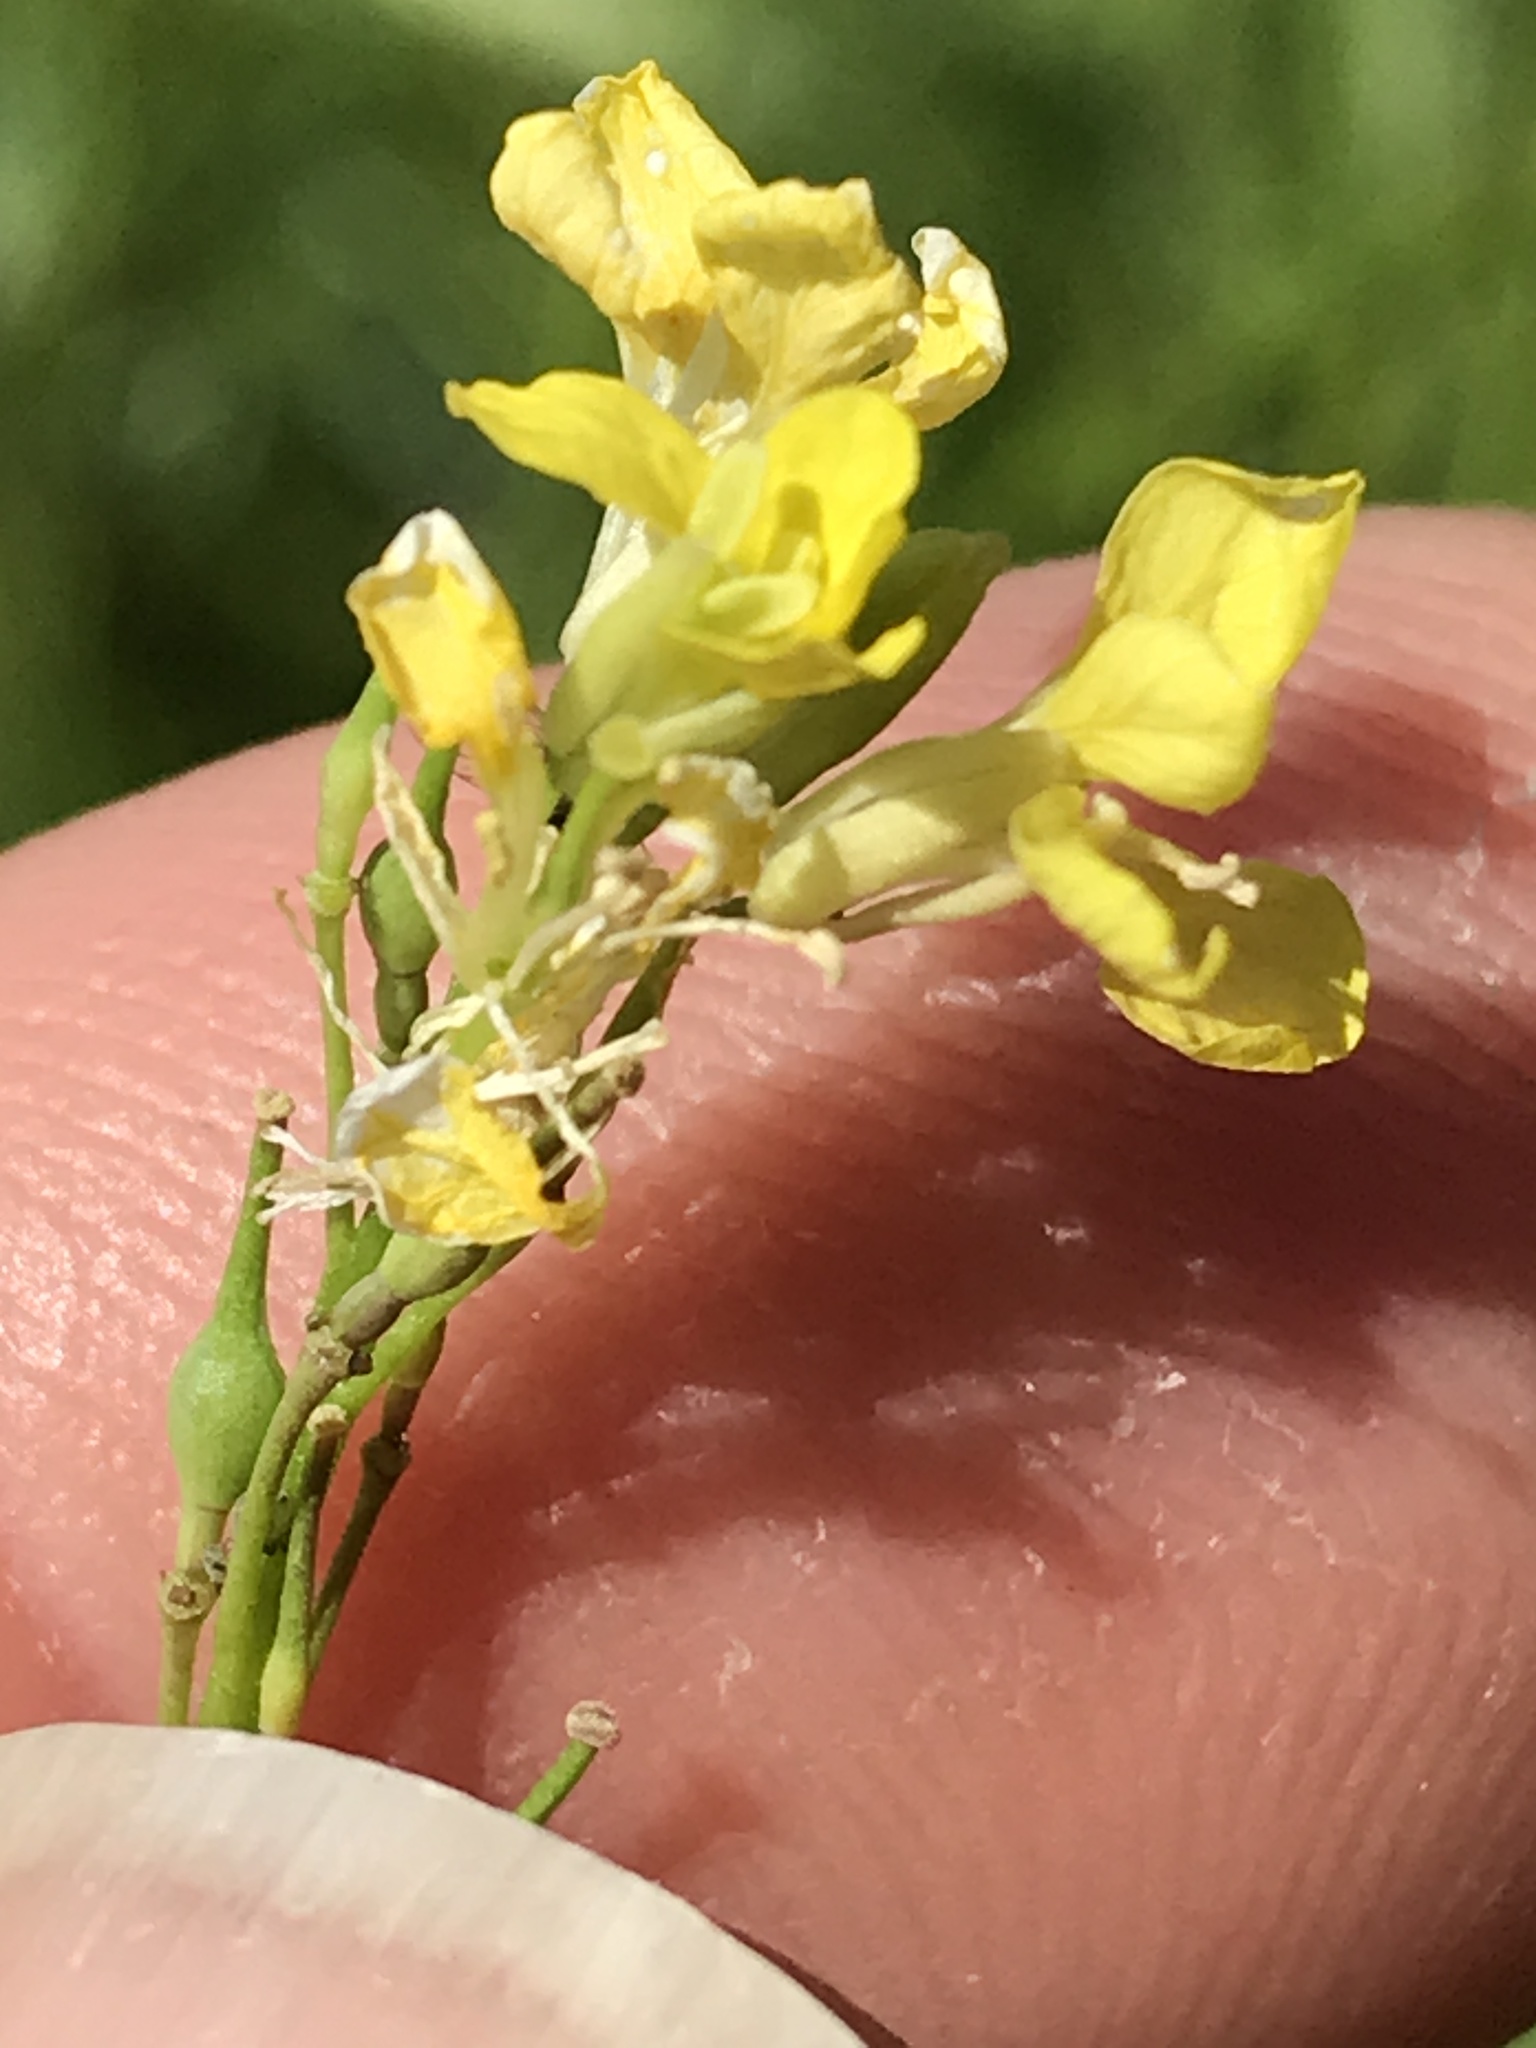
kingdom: Plantae
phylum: Tracheophyta
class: Magnoliopsida
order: Brassicales
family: Brassicaceae
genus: Rapistrum
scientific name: Rapistrum rugosum
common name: Annual bastardcabbage
